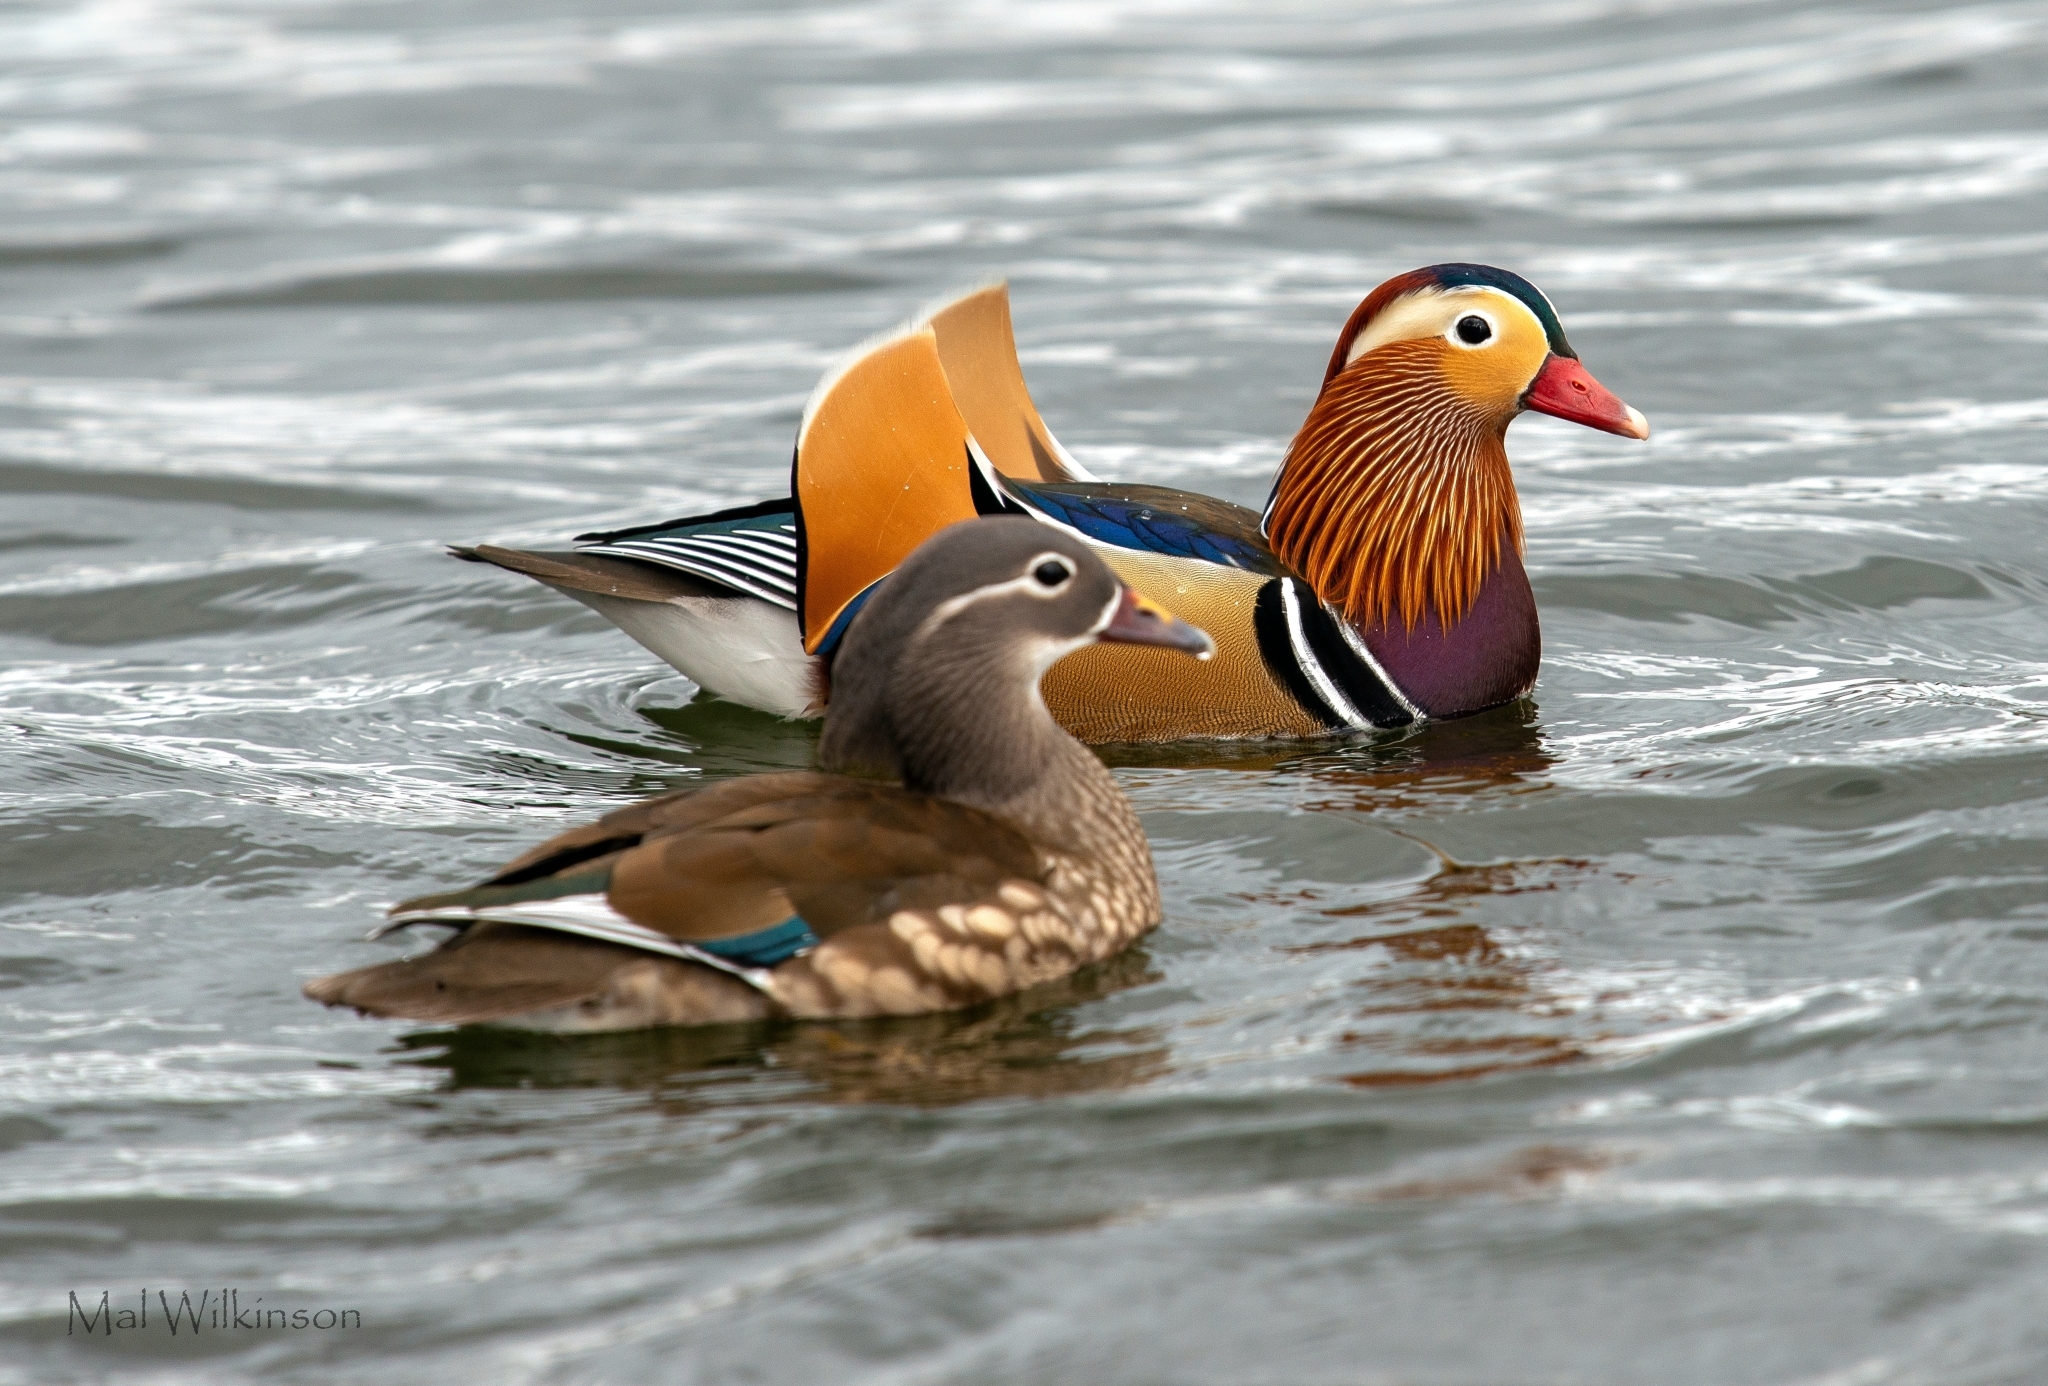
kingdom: Animalia
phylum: Chordata
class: Aves
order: Anseriformes
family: Anatidae
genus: Aix
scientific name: Aix galericulata
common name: Mandarin duck
